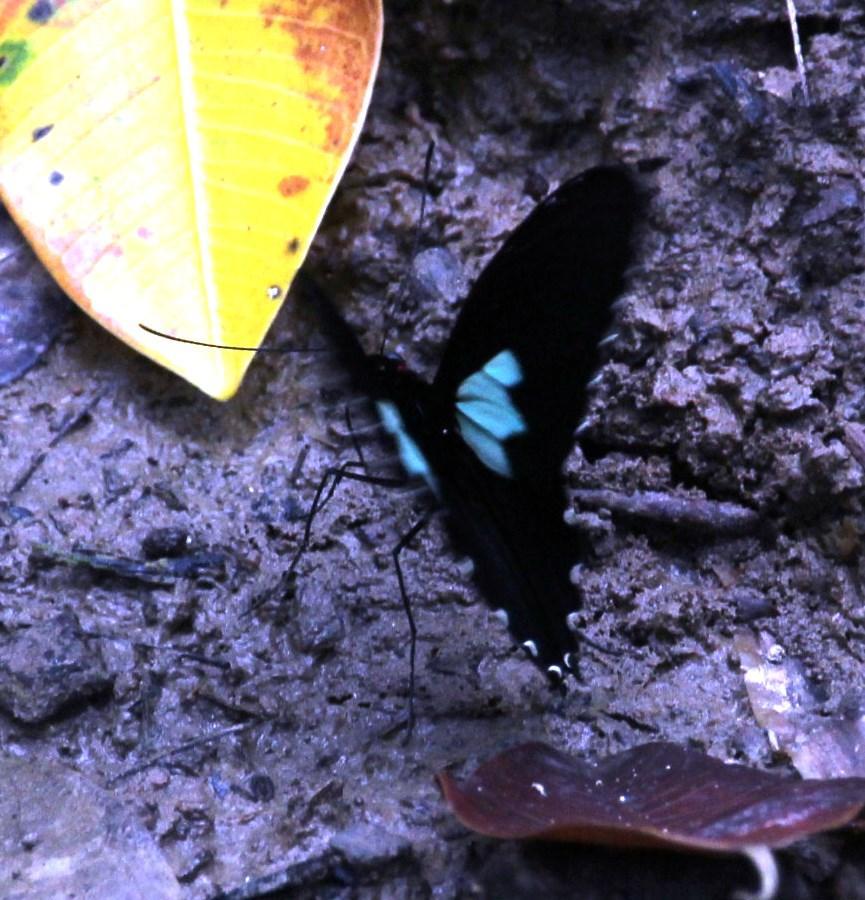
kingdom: Animalia
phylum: Arthropoda
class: Insecta
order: Lepidoptera
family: Papilionidae
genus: Parides
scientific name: Parides sesostris
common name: Southern cattle heart
